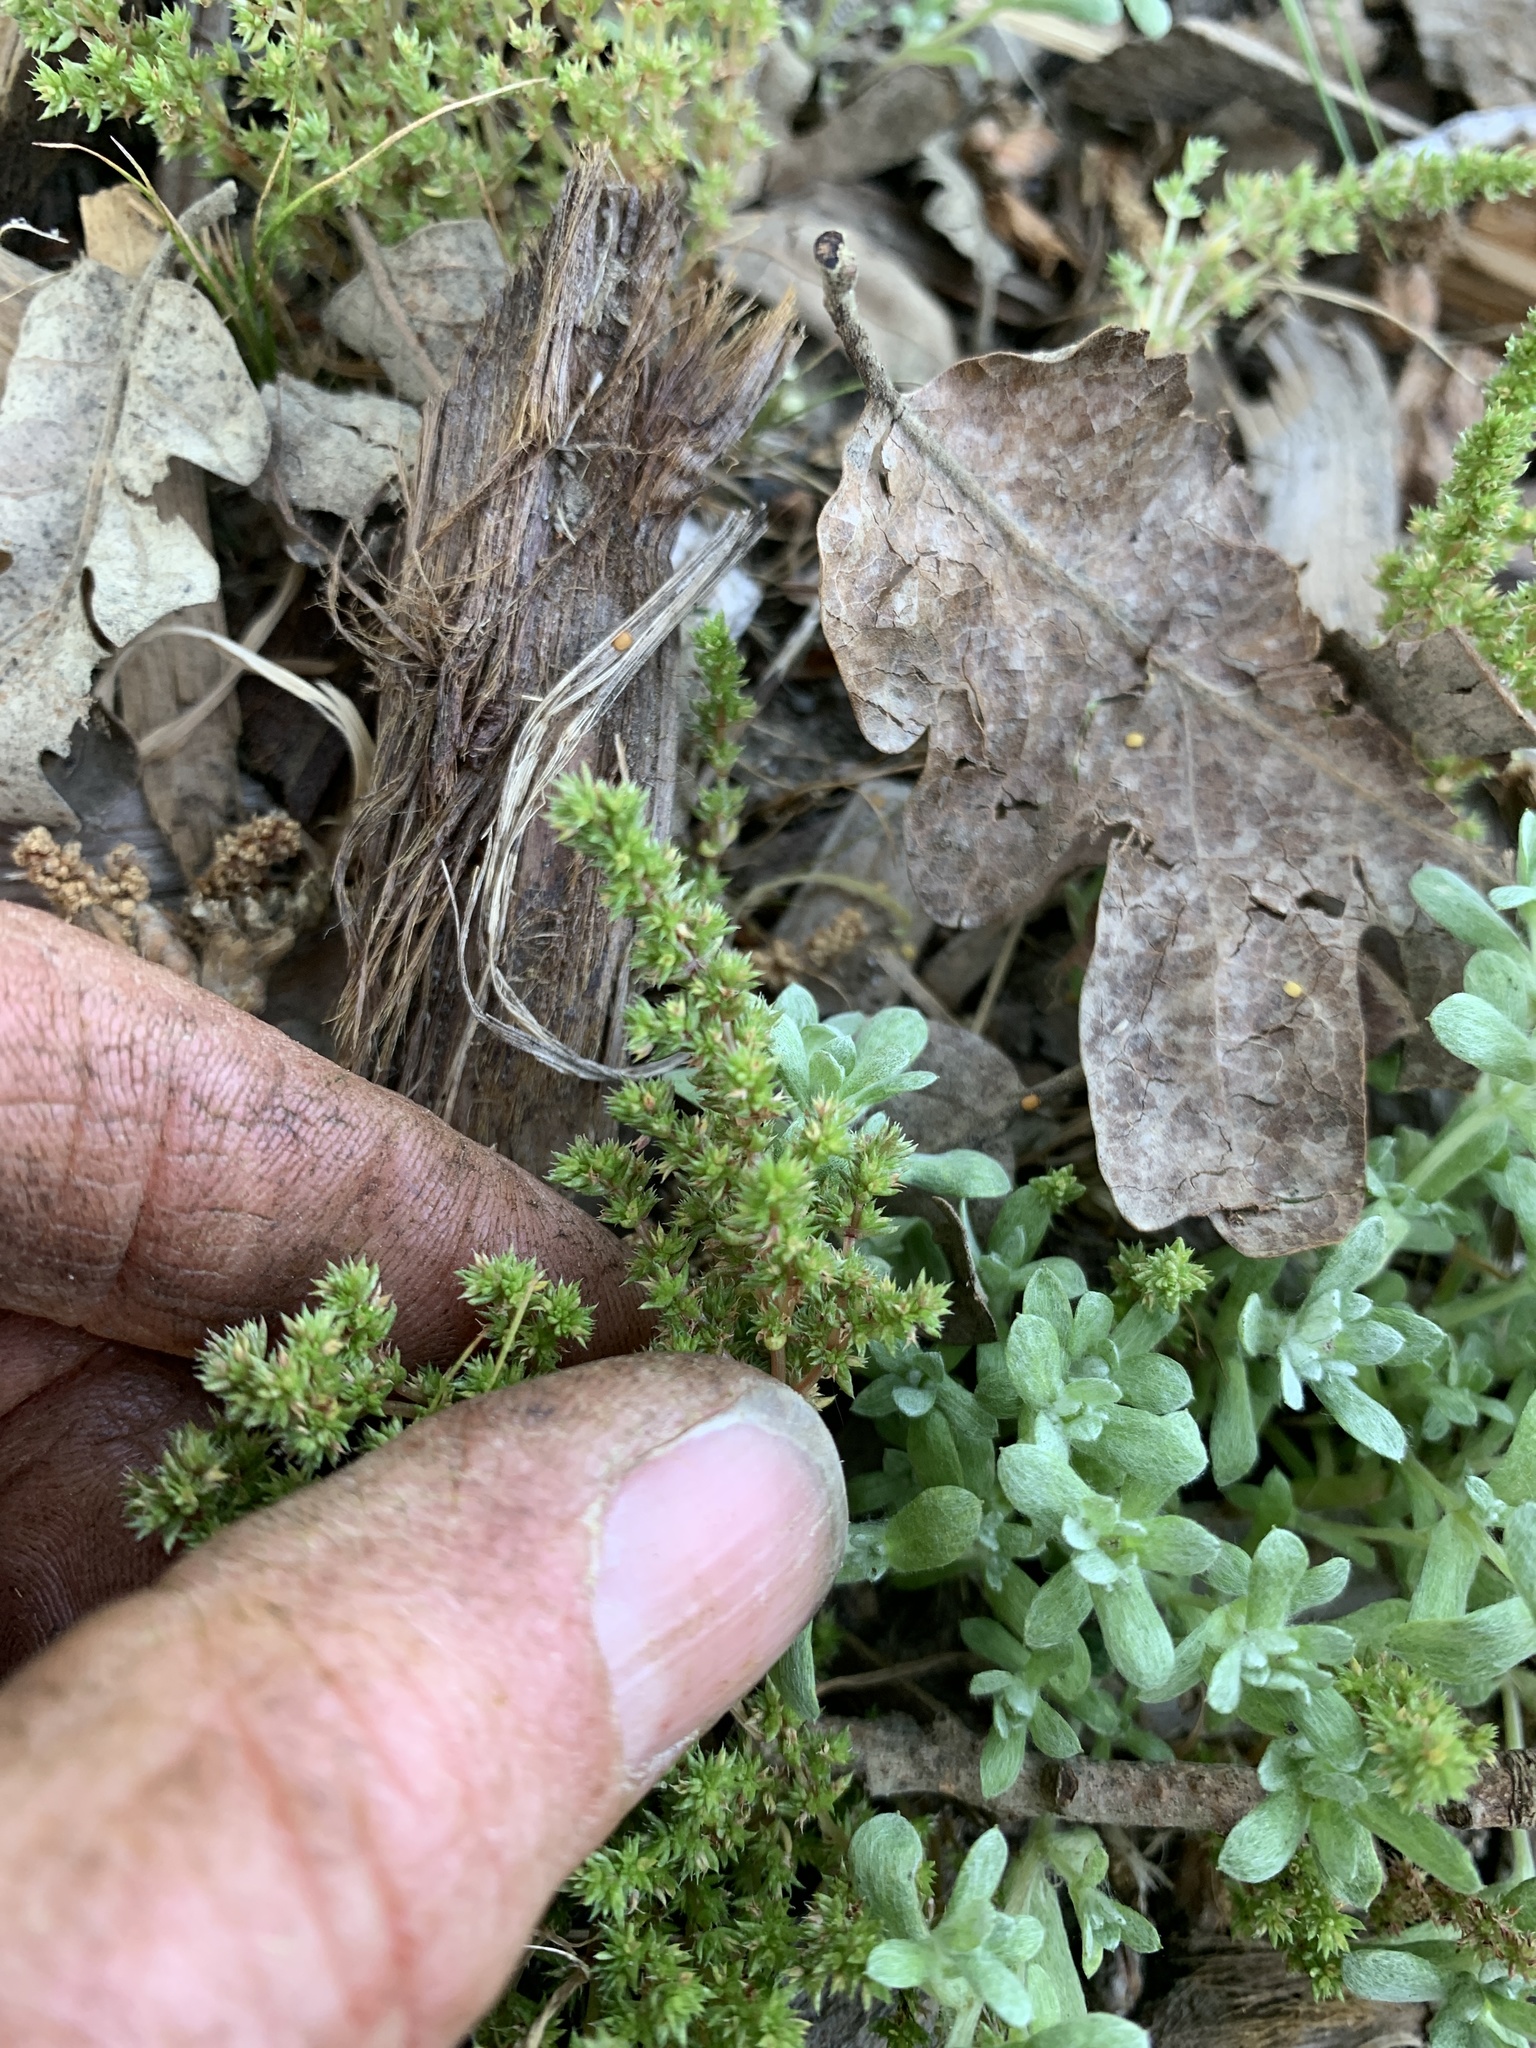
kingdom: Plantae
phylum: Tracheophyta
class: Magnoliopsida
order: Saxifragales
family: Crassulaceae
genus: Crassula
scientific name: Crassula tillaea
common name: Mossy stonecrop
